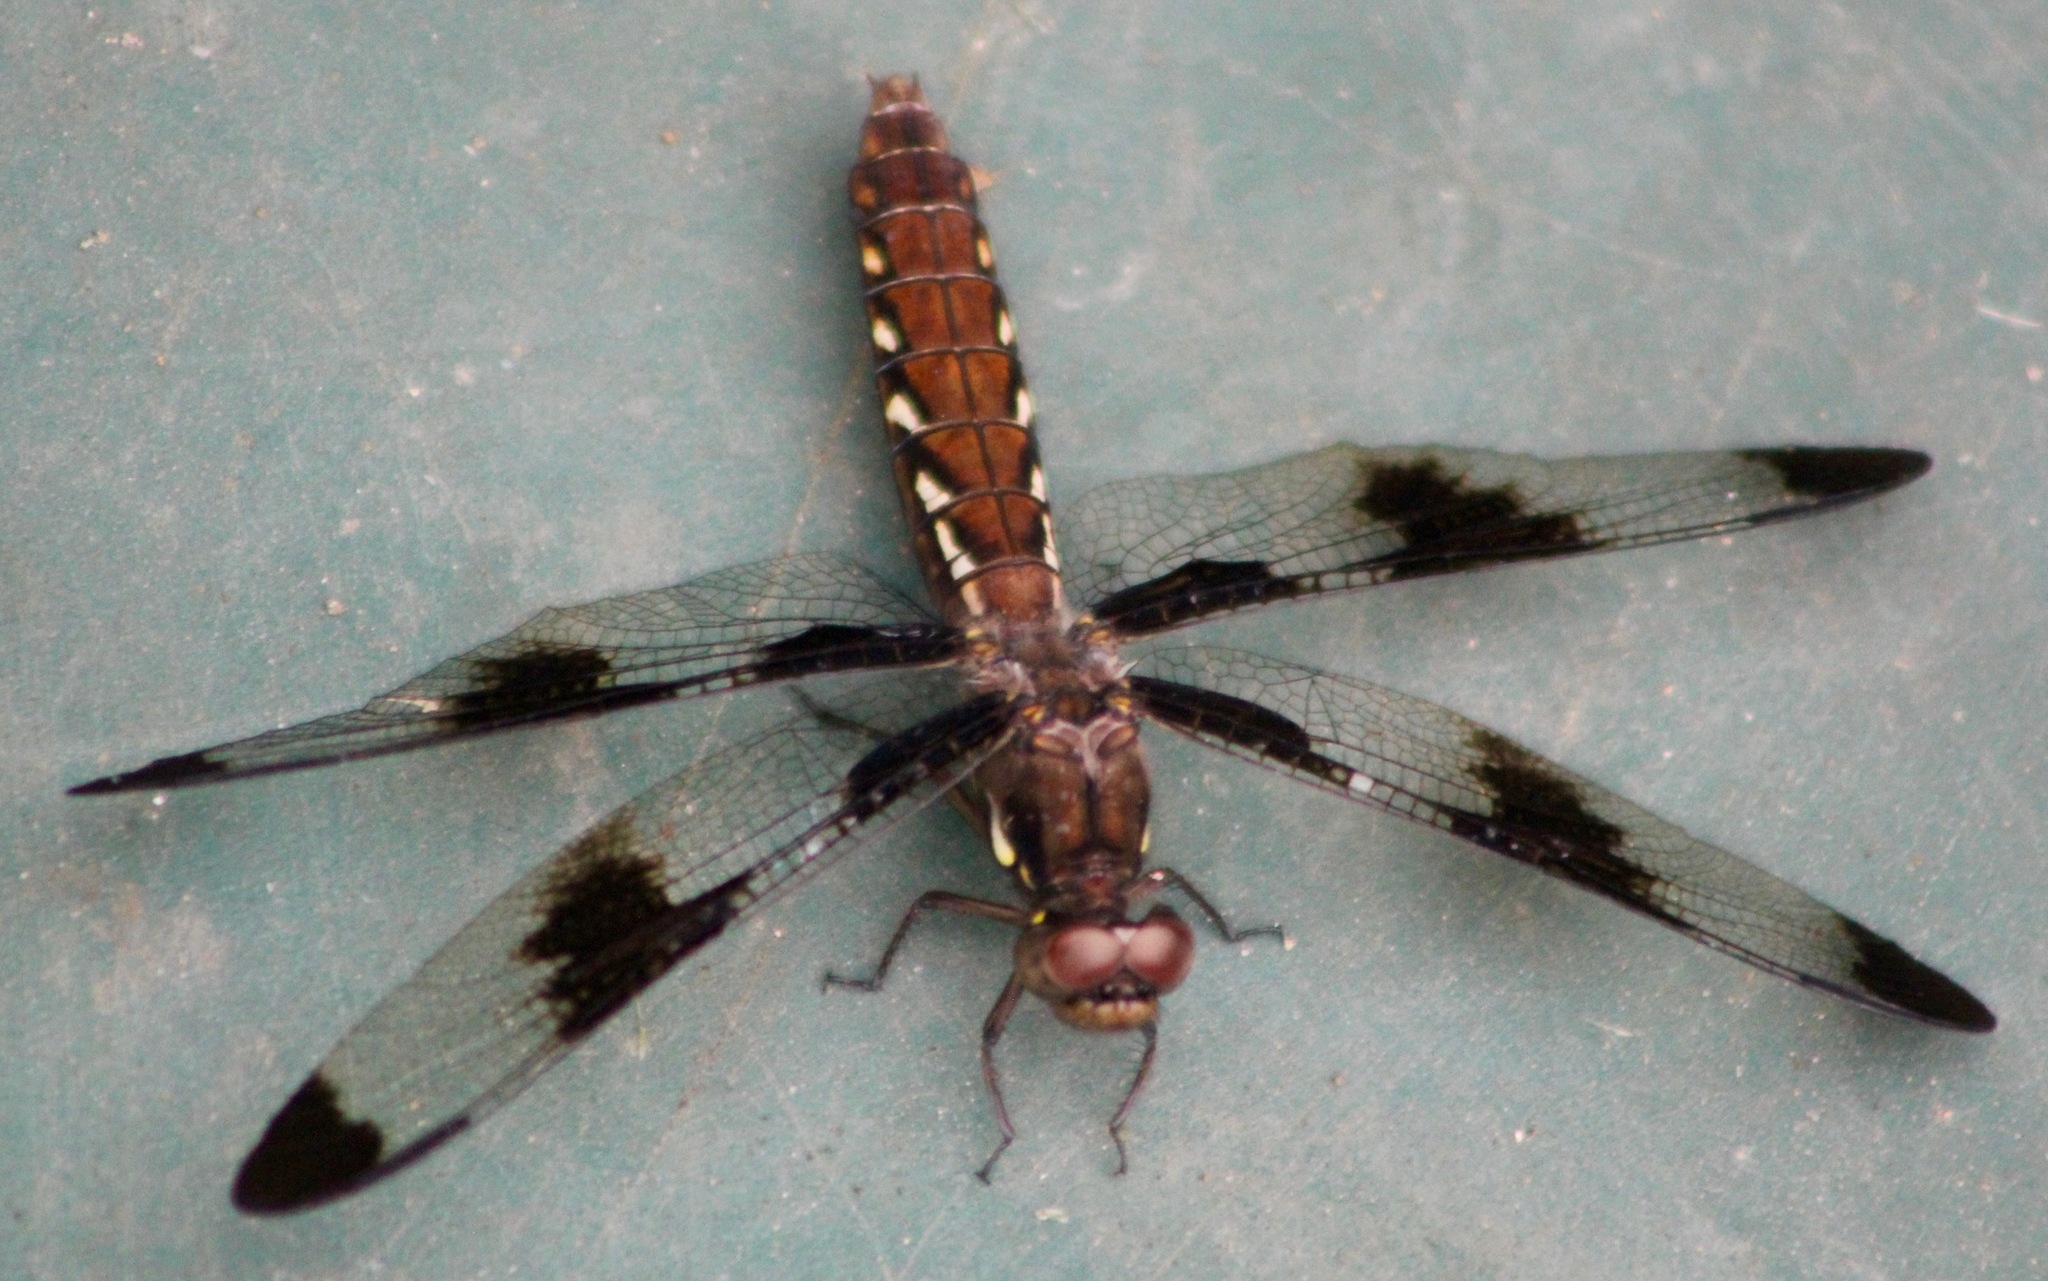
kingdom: Animalia
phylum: Arthropoda
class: Insecta
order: Odonata
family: Libellulidae
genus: Plathemis
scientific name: Plathemis lydia
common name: Common whitetail
